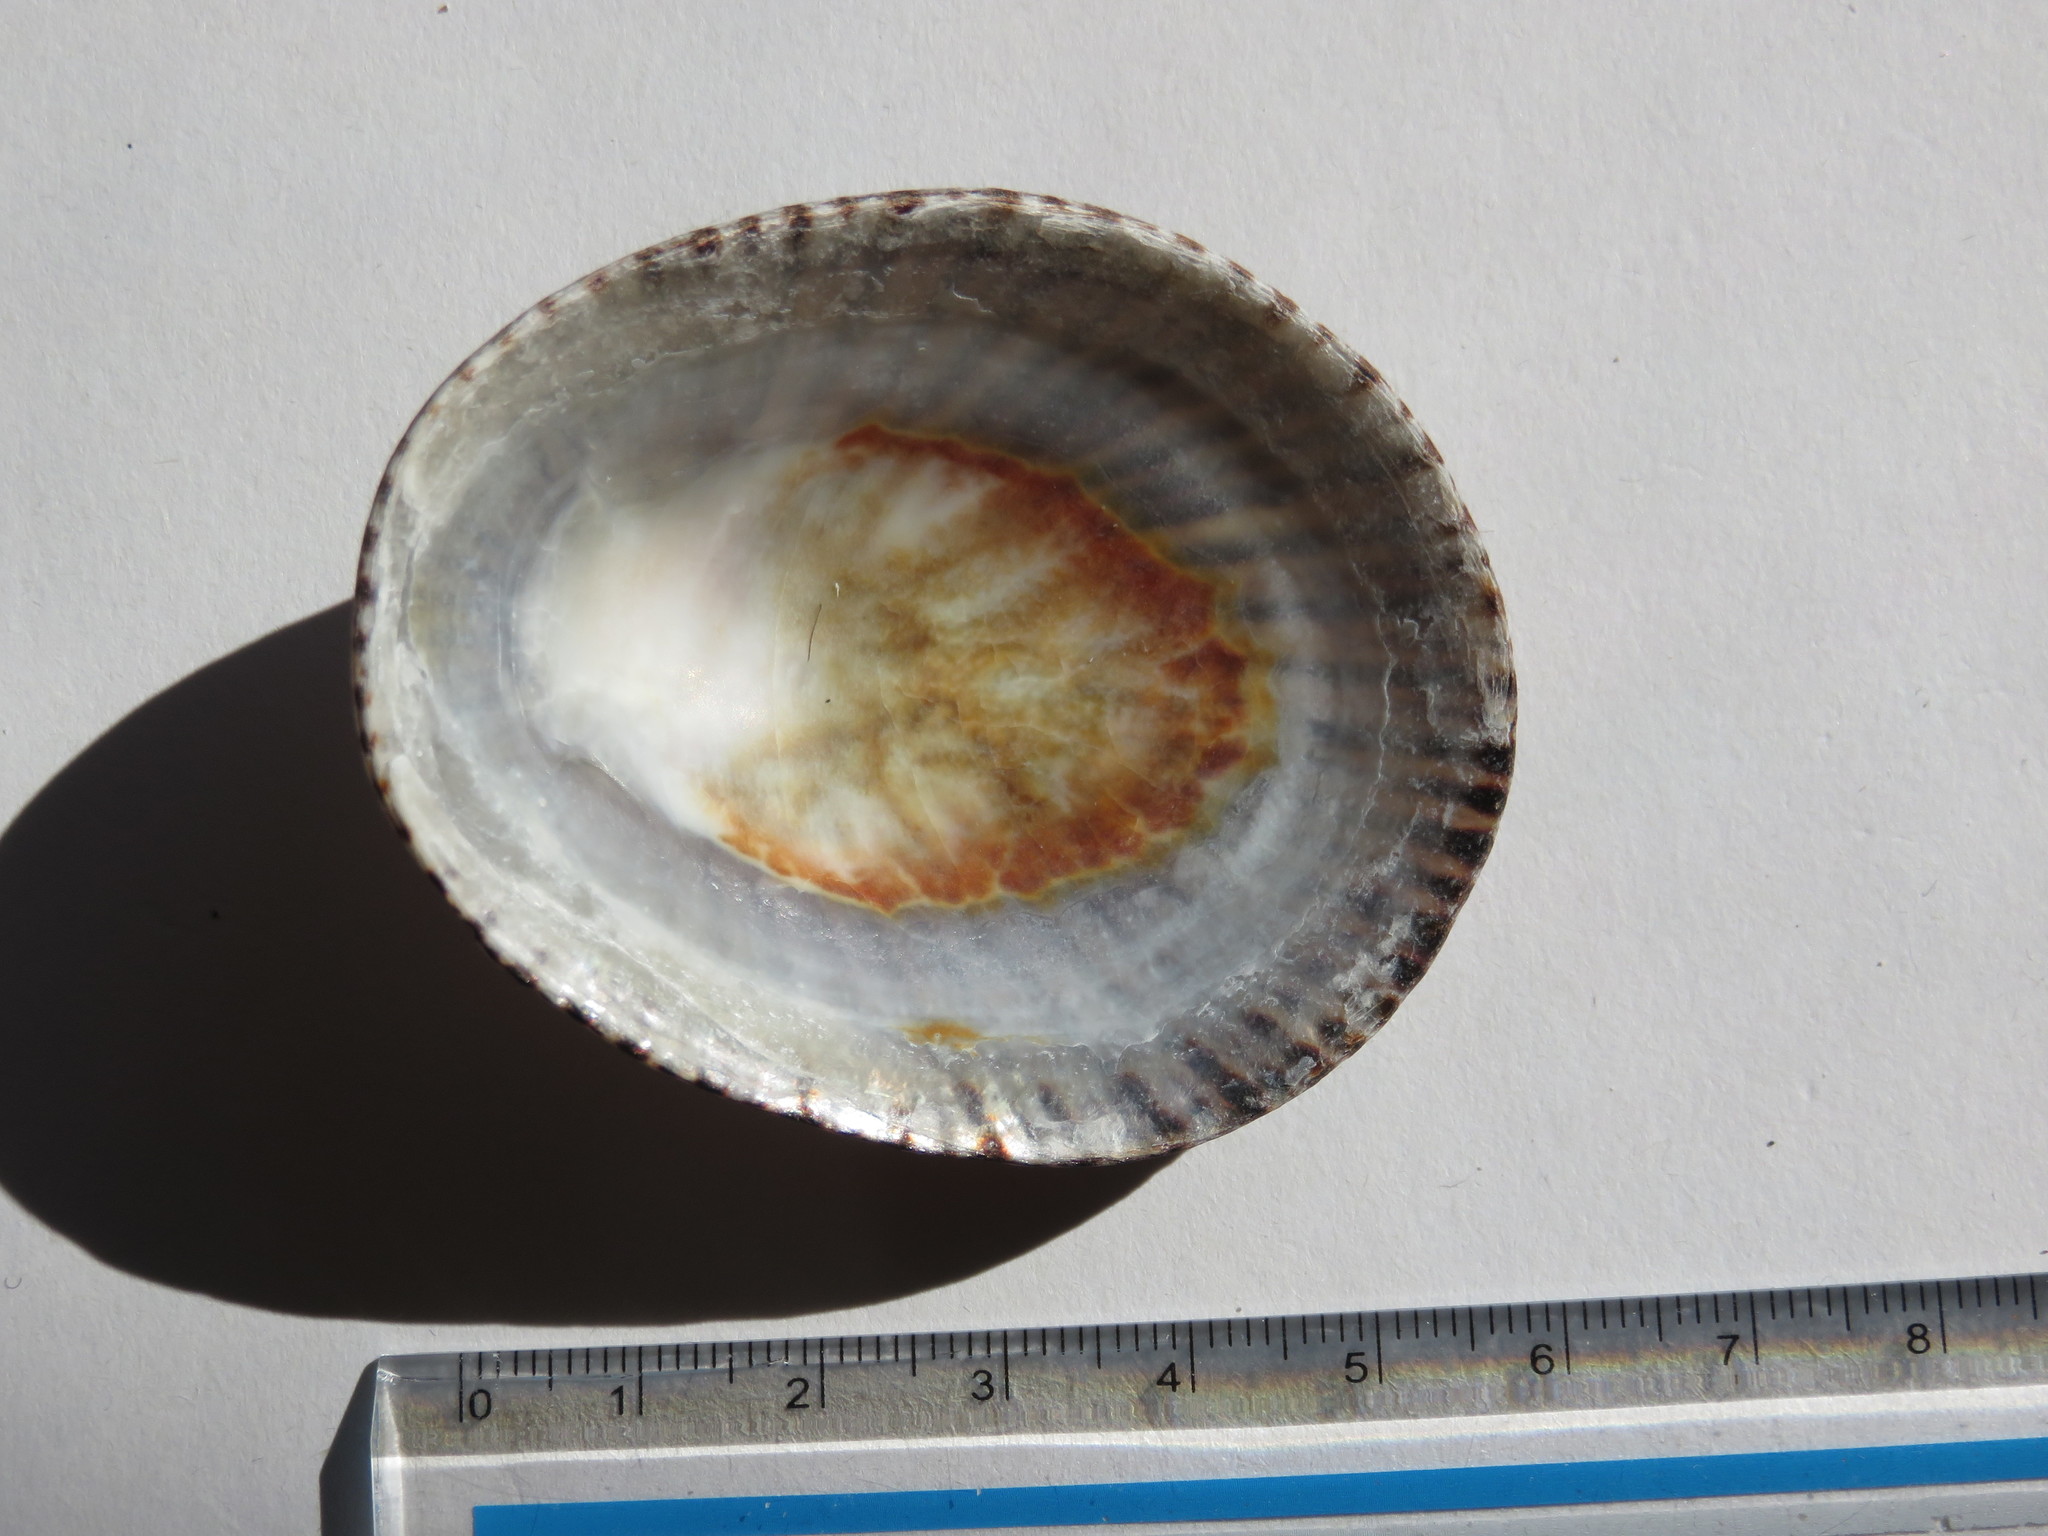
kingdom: Animalia
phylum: Mollusca
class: Gastropoda
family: Nacellidae
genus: Cellana
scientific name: Cellana nigrolineata
